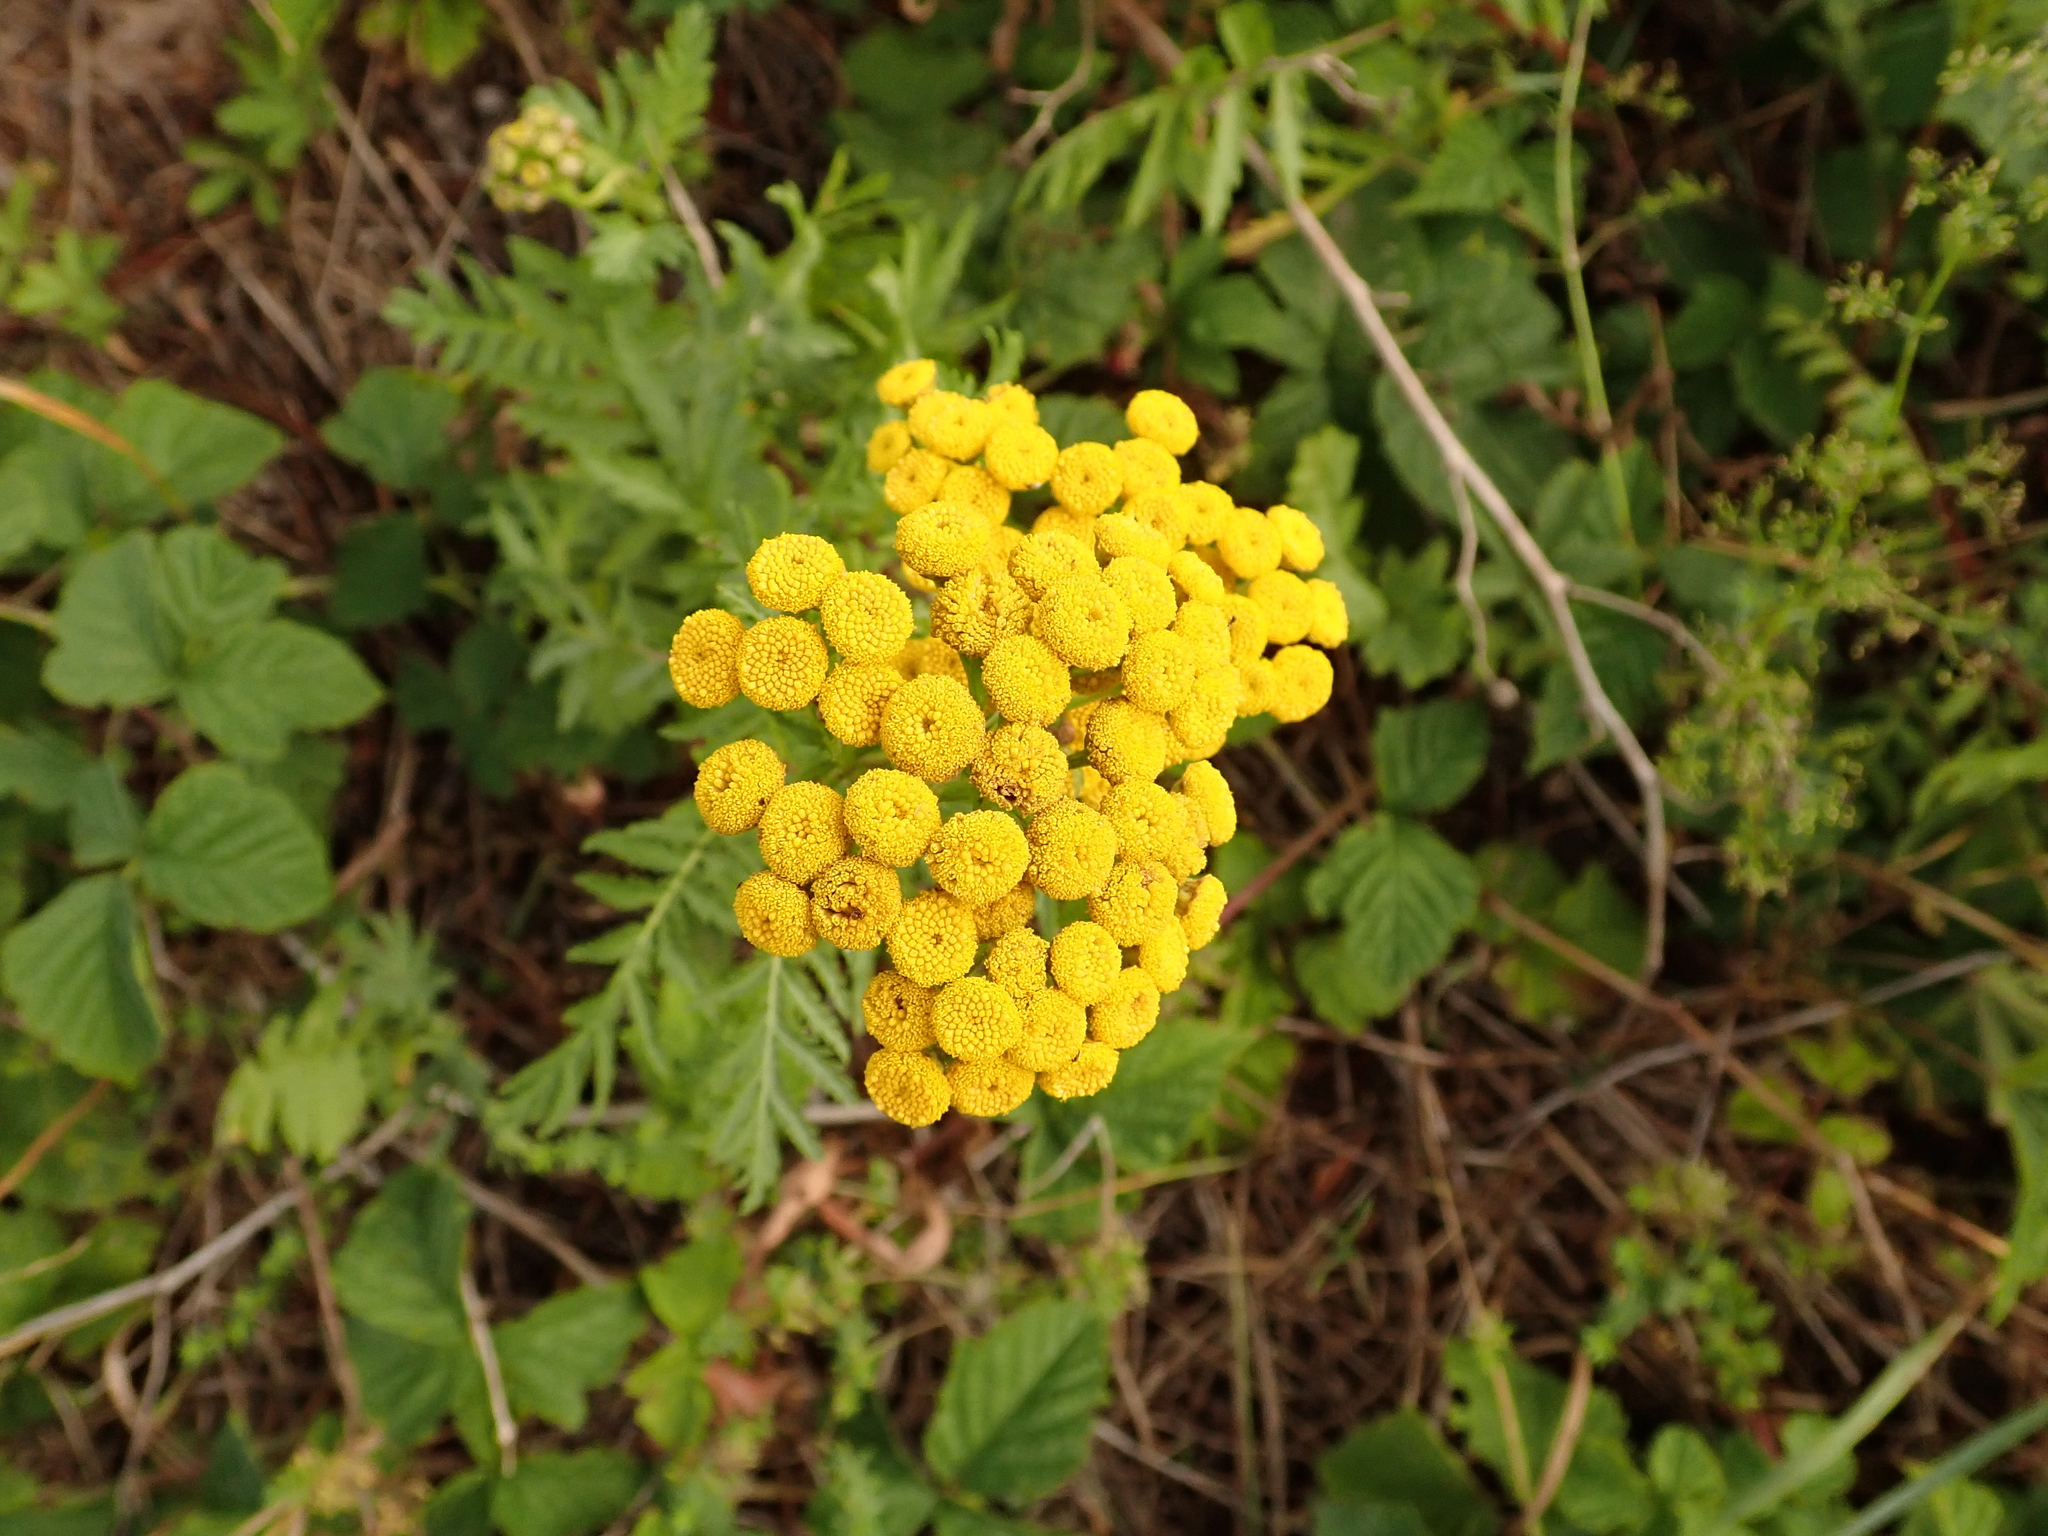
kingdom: Plantae
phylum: Tracheophyta
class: Magnoliopsida
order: Asterales
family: Asteraceae
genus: Tanacetum
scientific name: Tanacetum vulgare
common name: Common tansy
